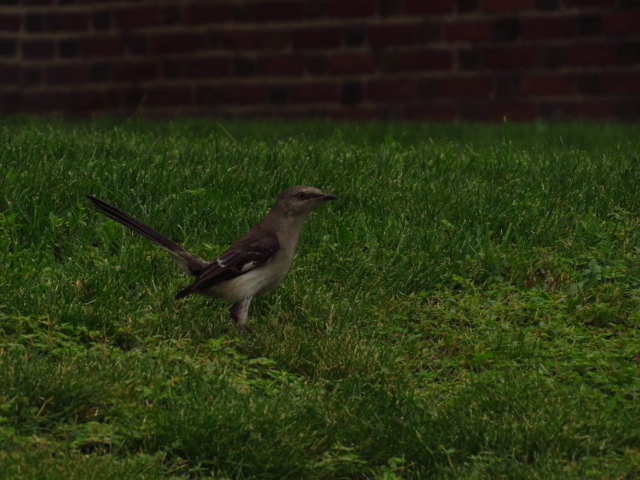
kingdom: Animalia
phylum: Chordata
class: Aves
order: Passeriformes
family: Mimidae
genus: Mimus
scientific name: Mimus polyglottos
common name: Northern mockingbird
